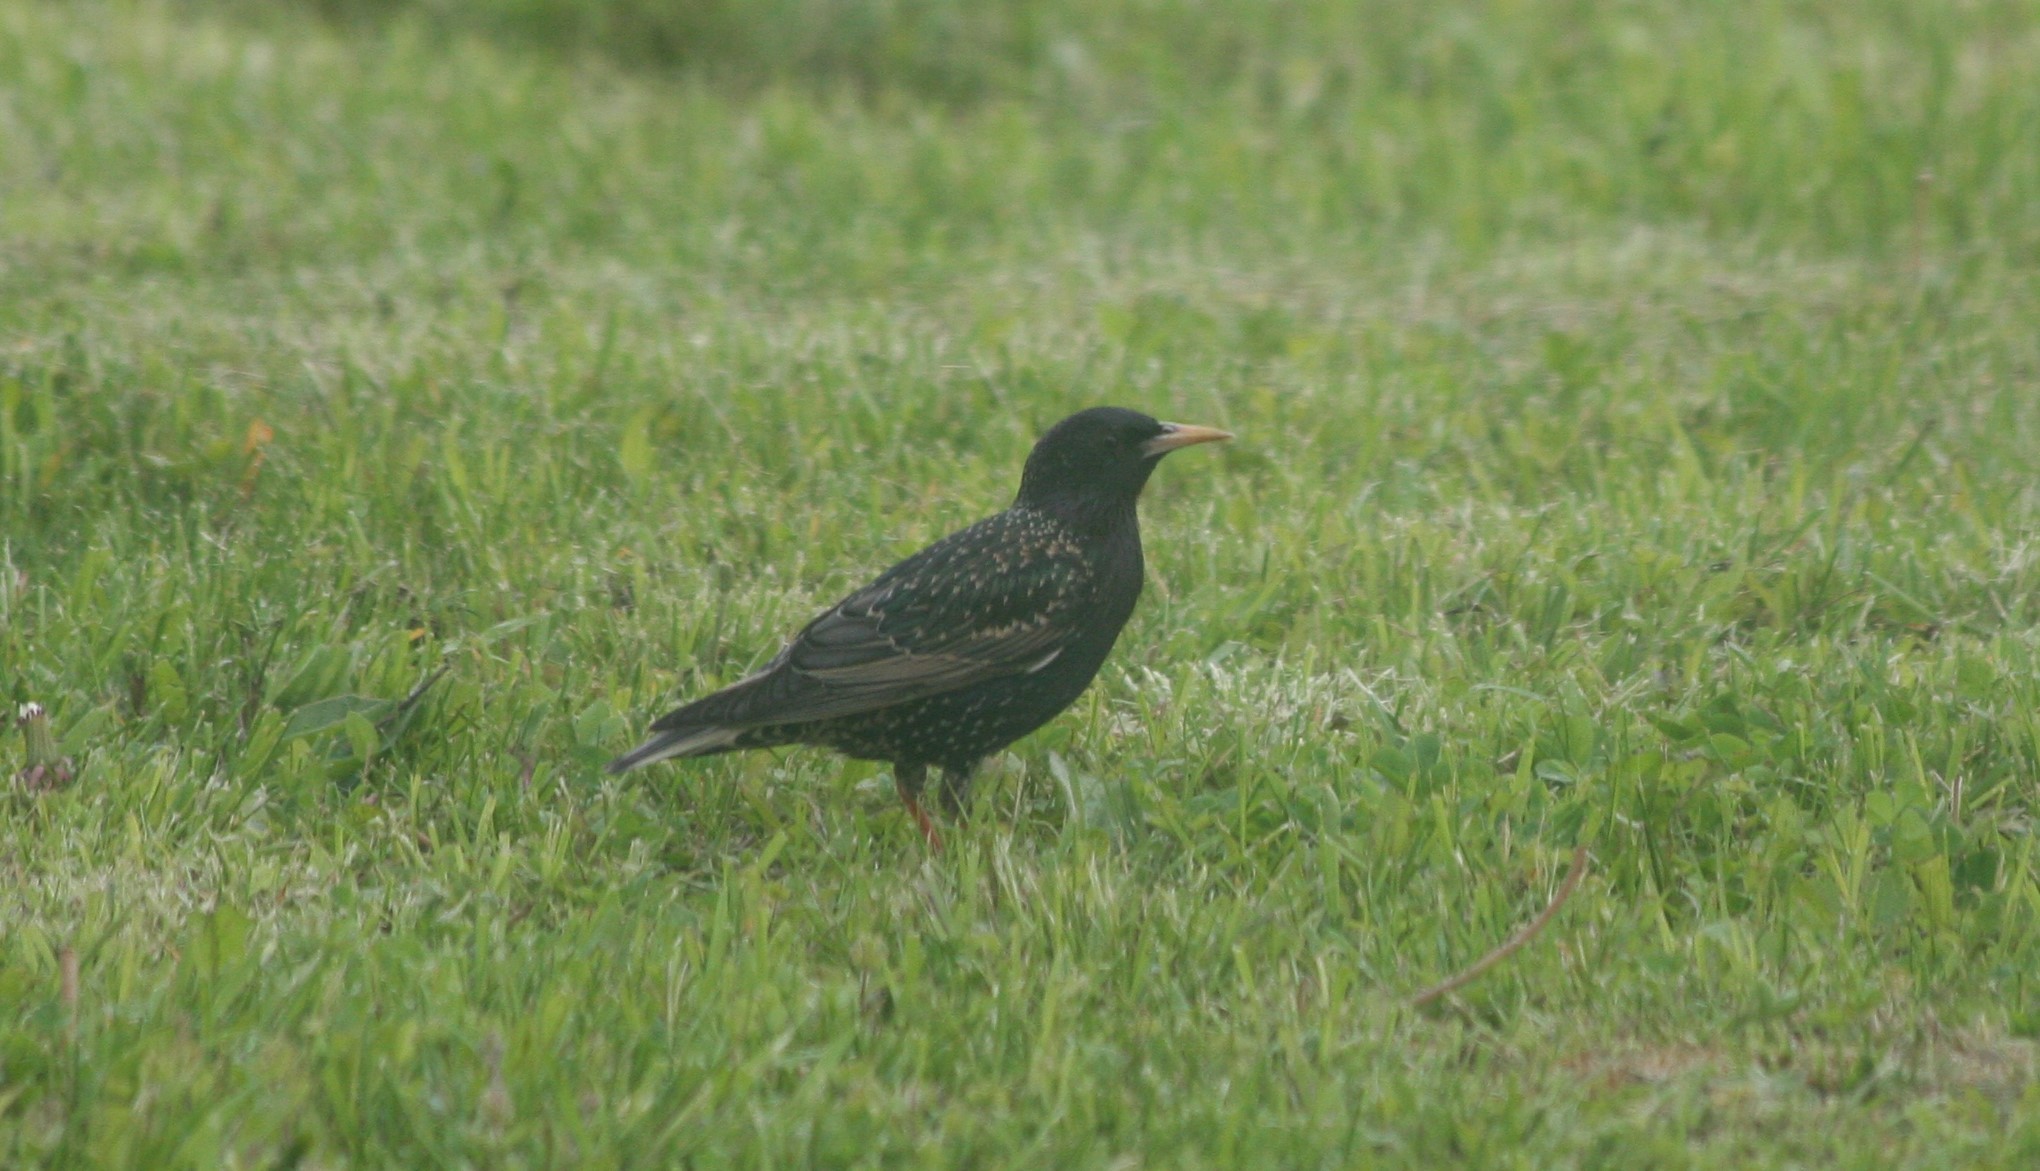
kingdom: Animalia
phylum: Chordata
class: Aves
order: Passeriformes
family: Sturnidae
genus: Sturnus
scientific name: Sturnus vulgaris
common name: Common starling
